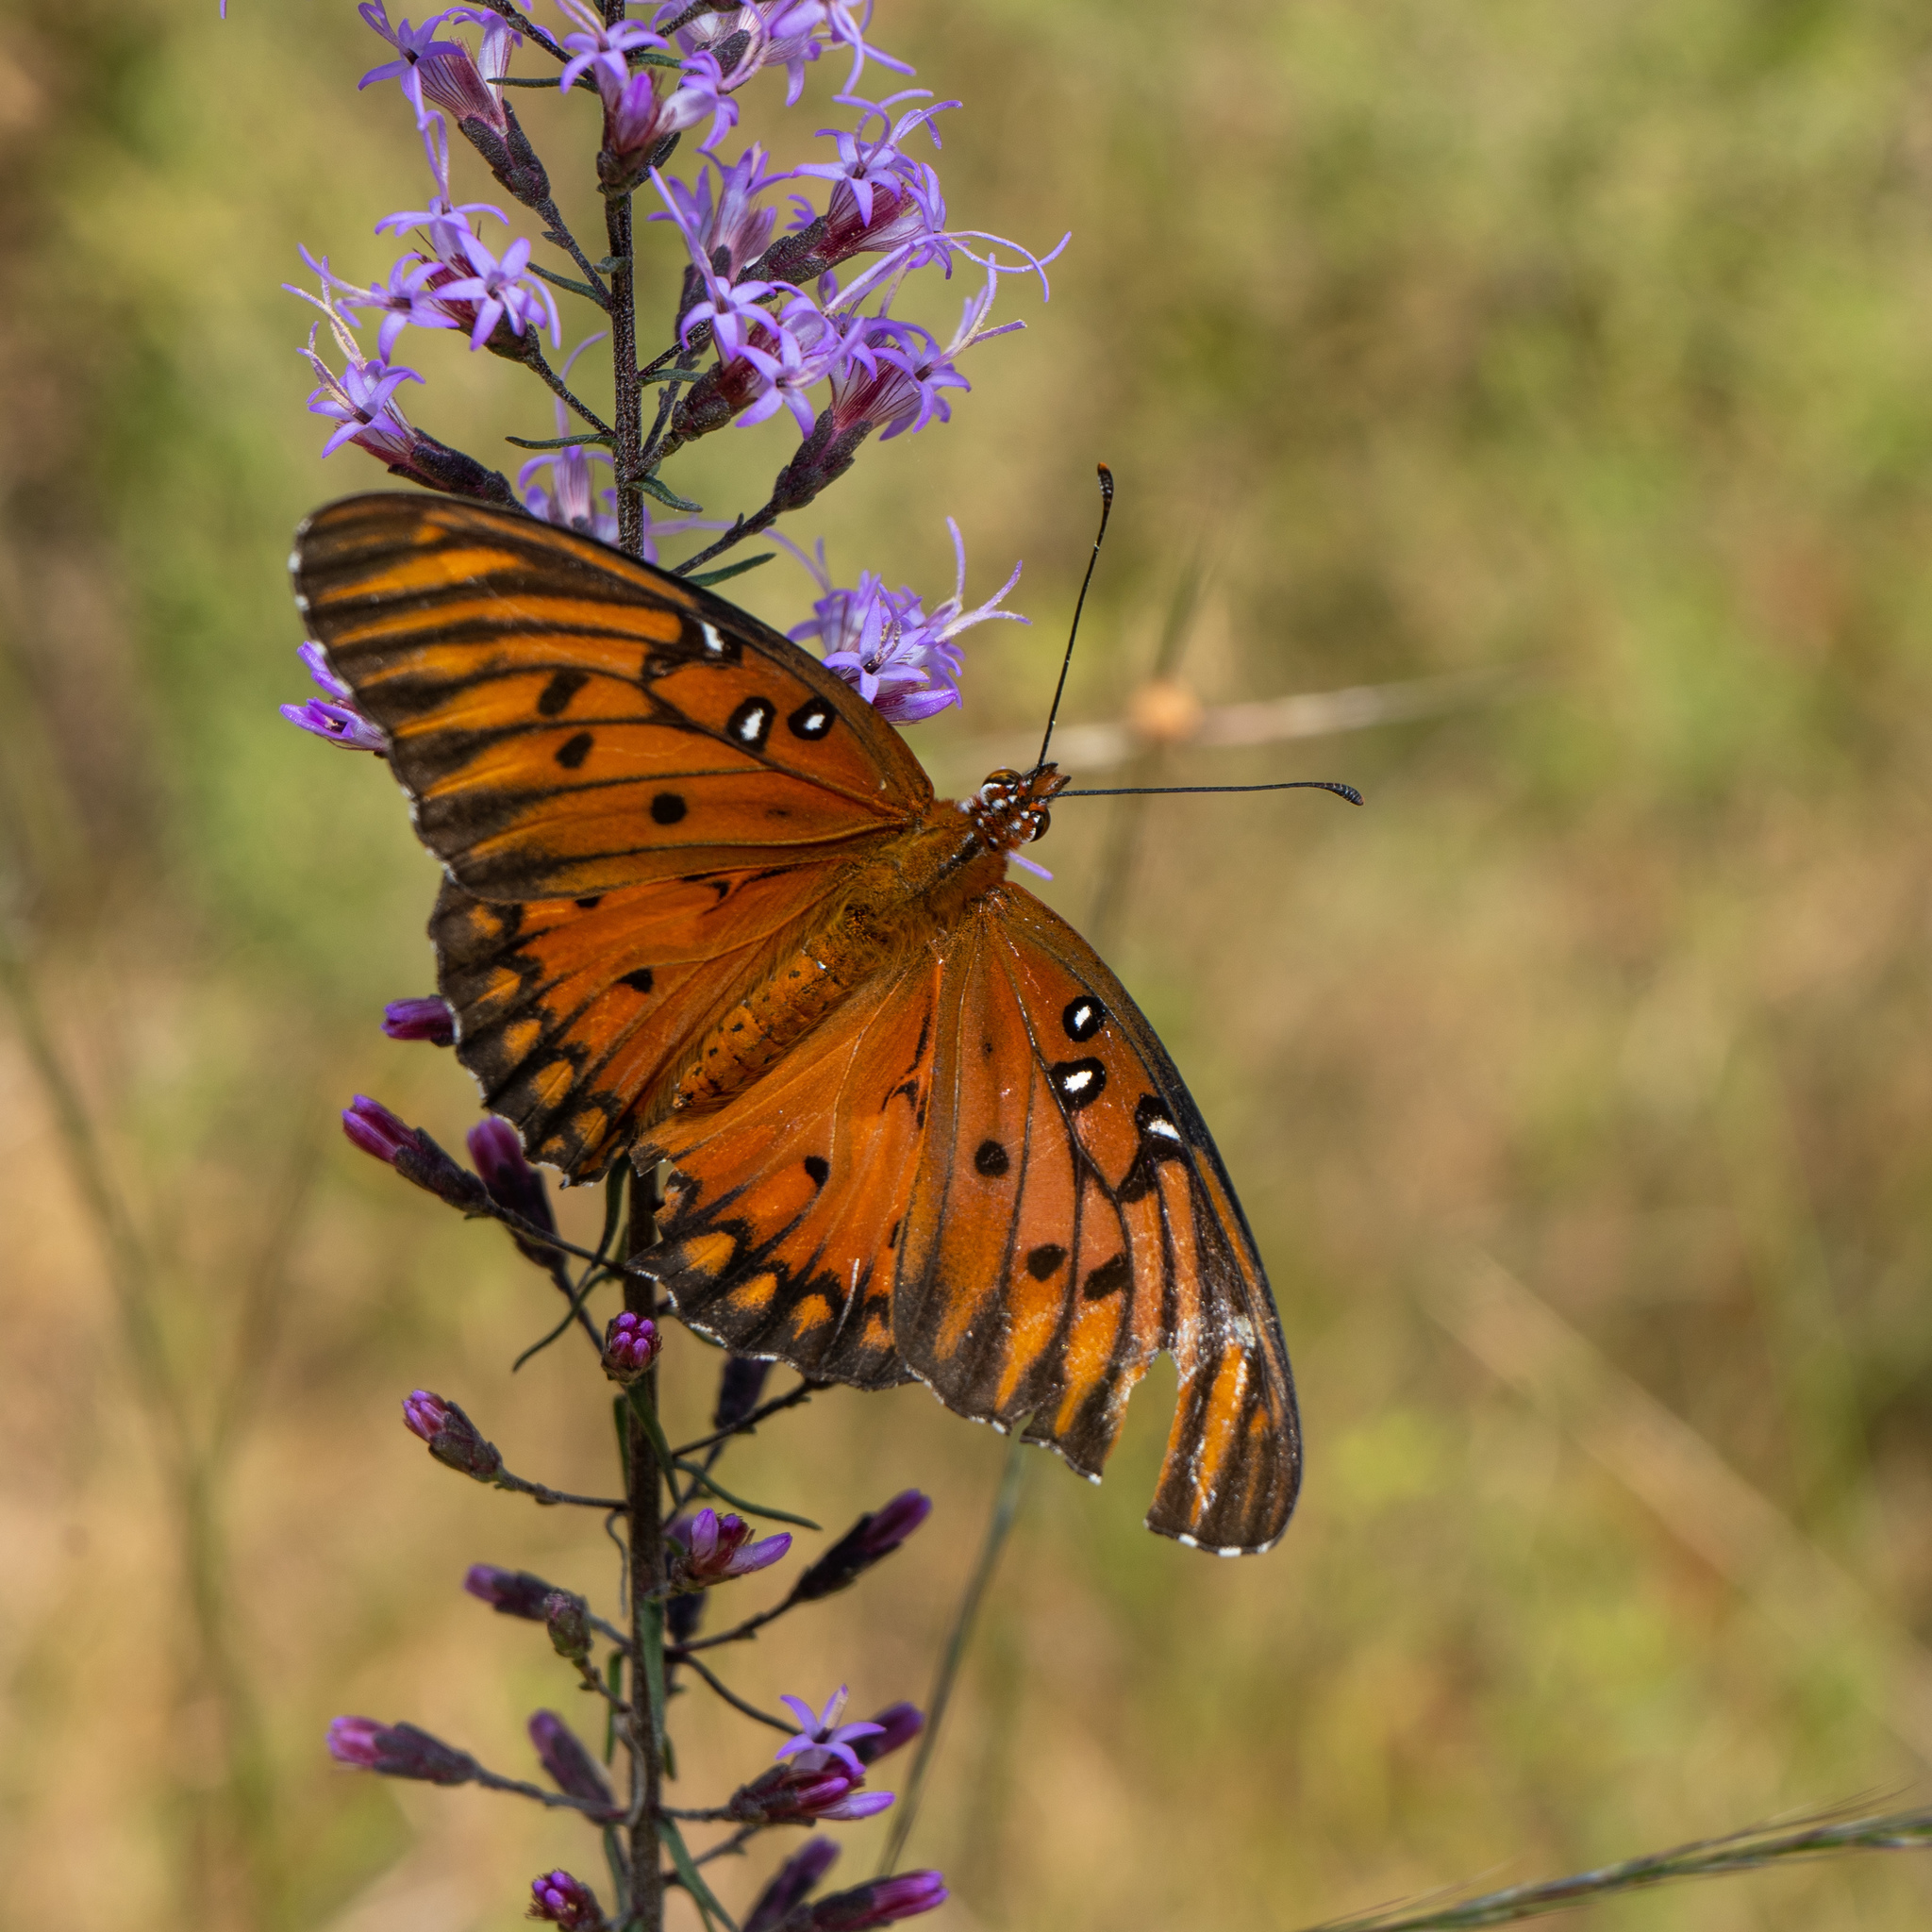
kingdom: Animalia
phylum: Arthropoda
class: Insecta
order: Lepidoptera
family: Nymphalidae
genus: Dione
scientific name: Dione vanillae
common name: Gulf fritillary
